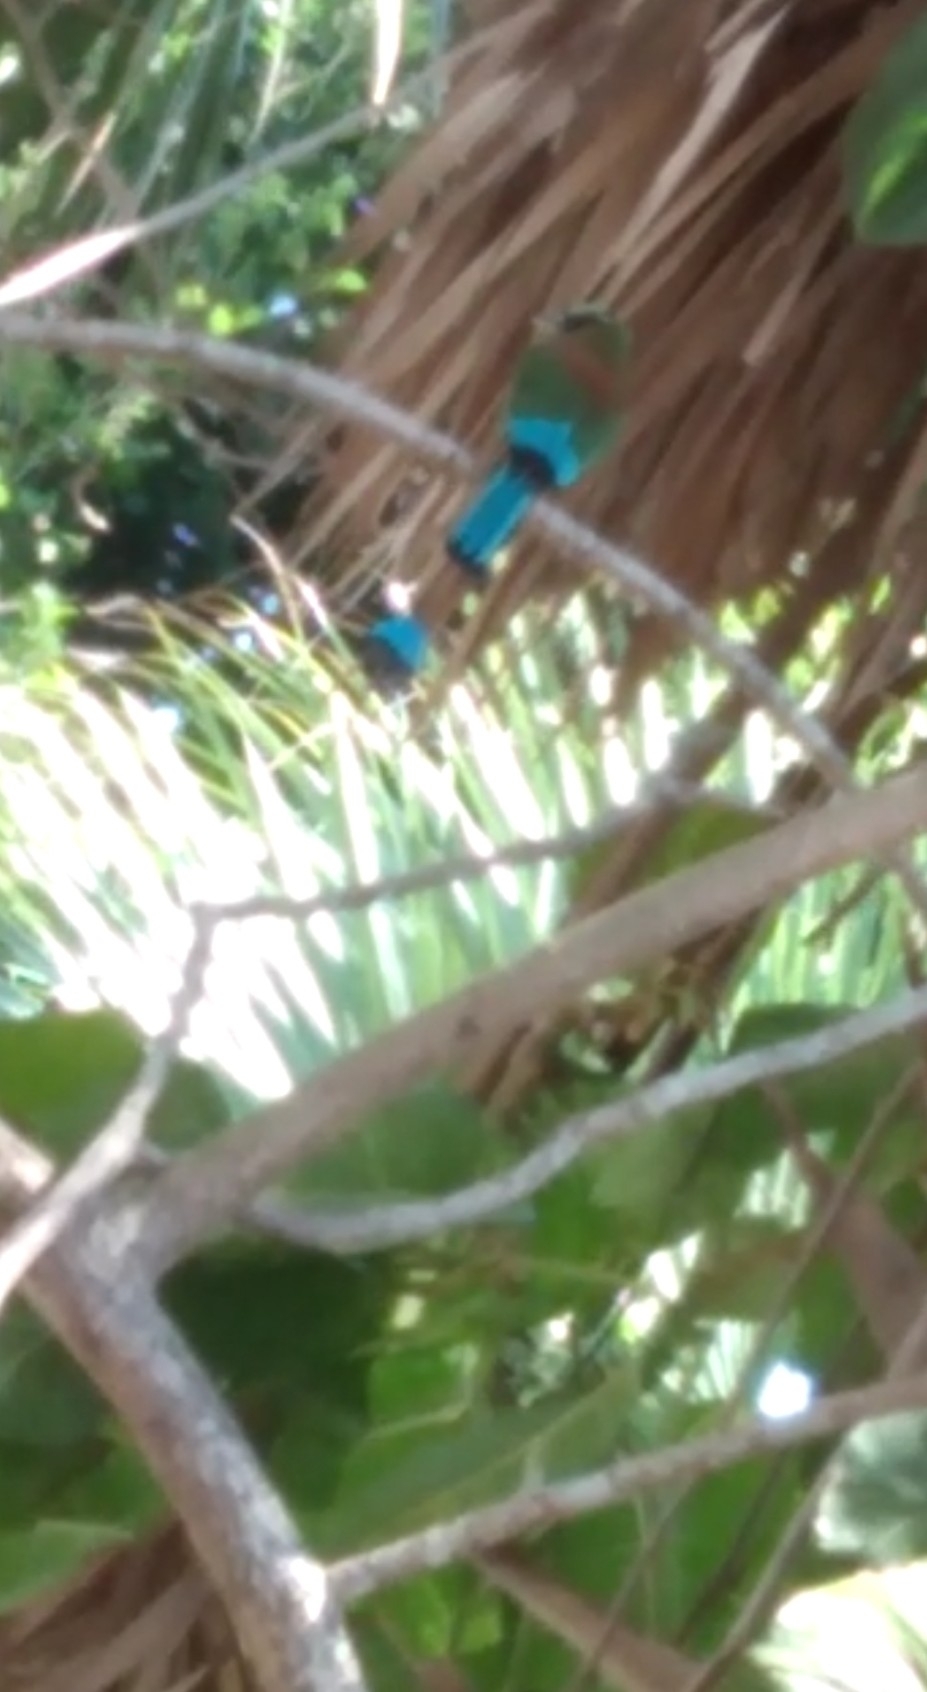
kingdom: Animalia
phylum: Chordata
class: Aves
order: Coraciiformes
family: Momotidae
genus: Eumomota
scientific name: Eumomota superciliosa
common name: Turquoise-browed motmot
